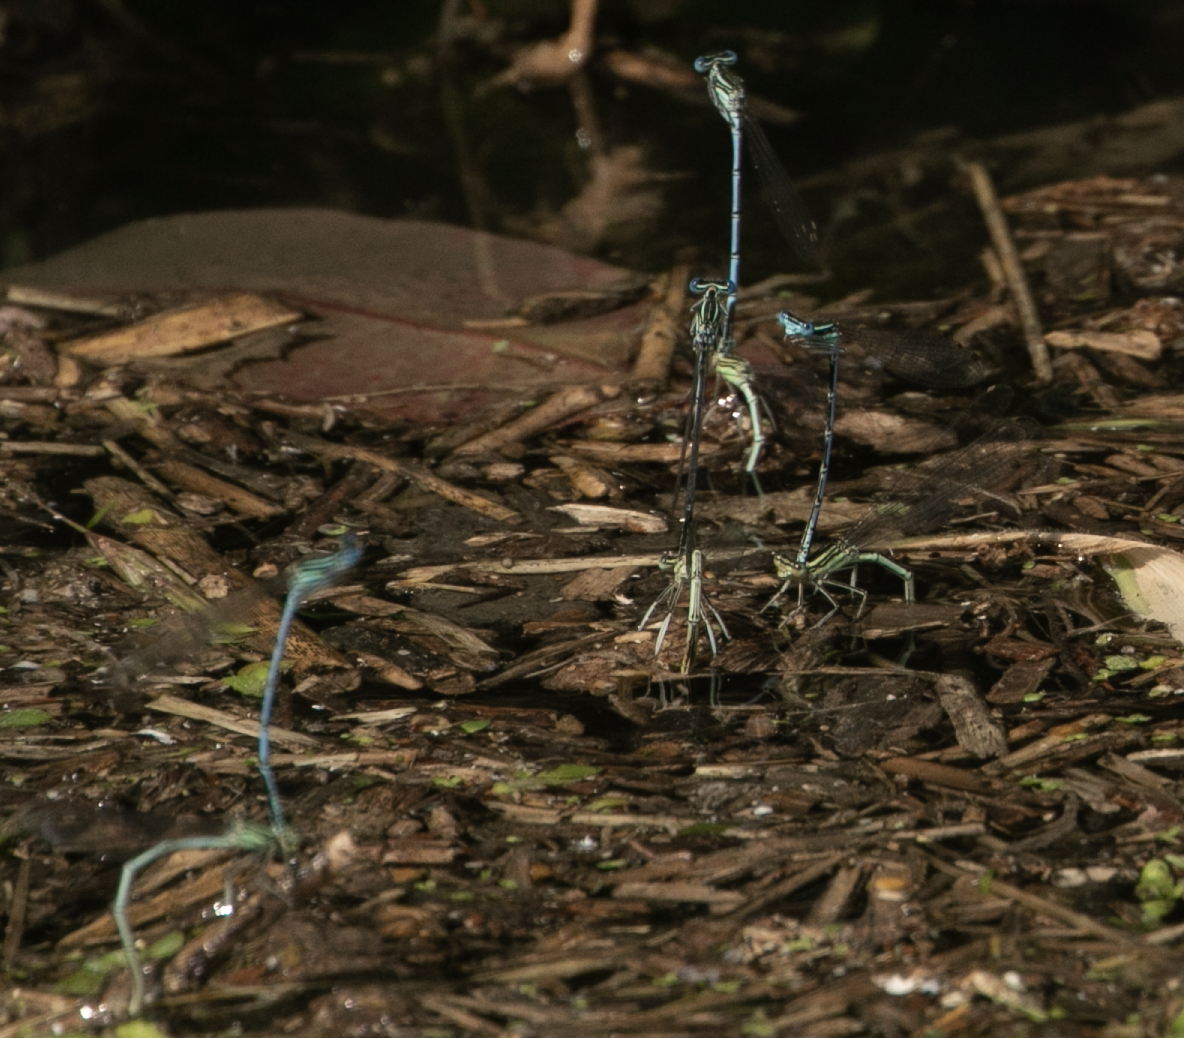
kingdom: Animalia
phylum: Arthropoda
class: Insecta
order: Odonata
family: Platycnemididae
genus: Platycnemis
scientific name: Platycnemis pennipes
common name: White-legged damselfly
